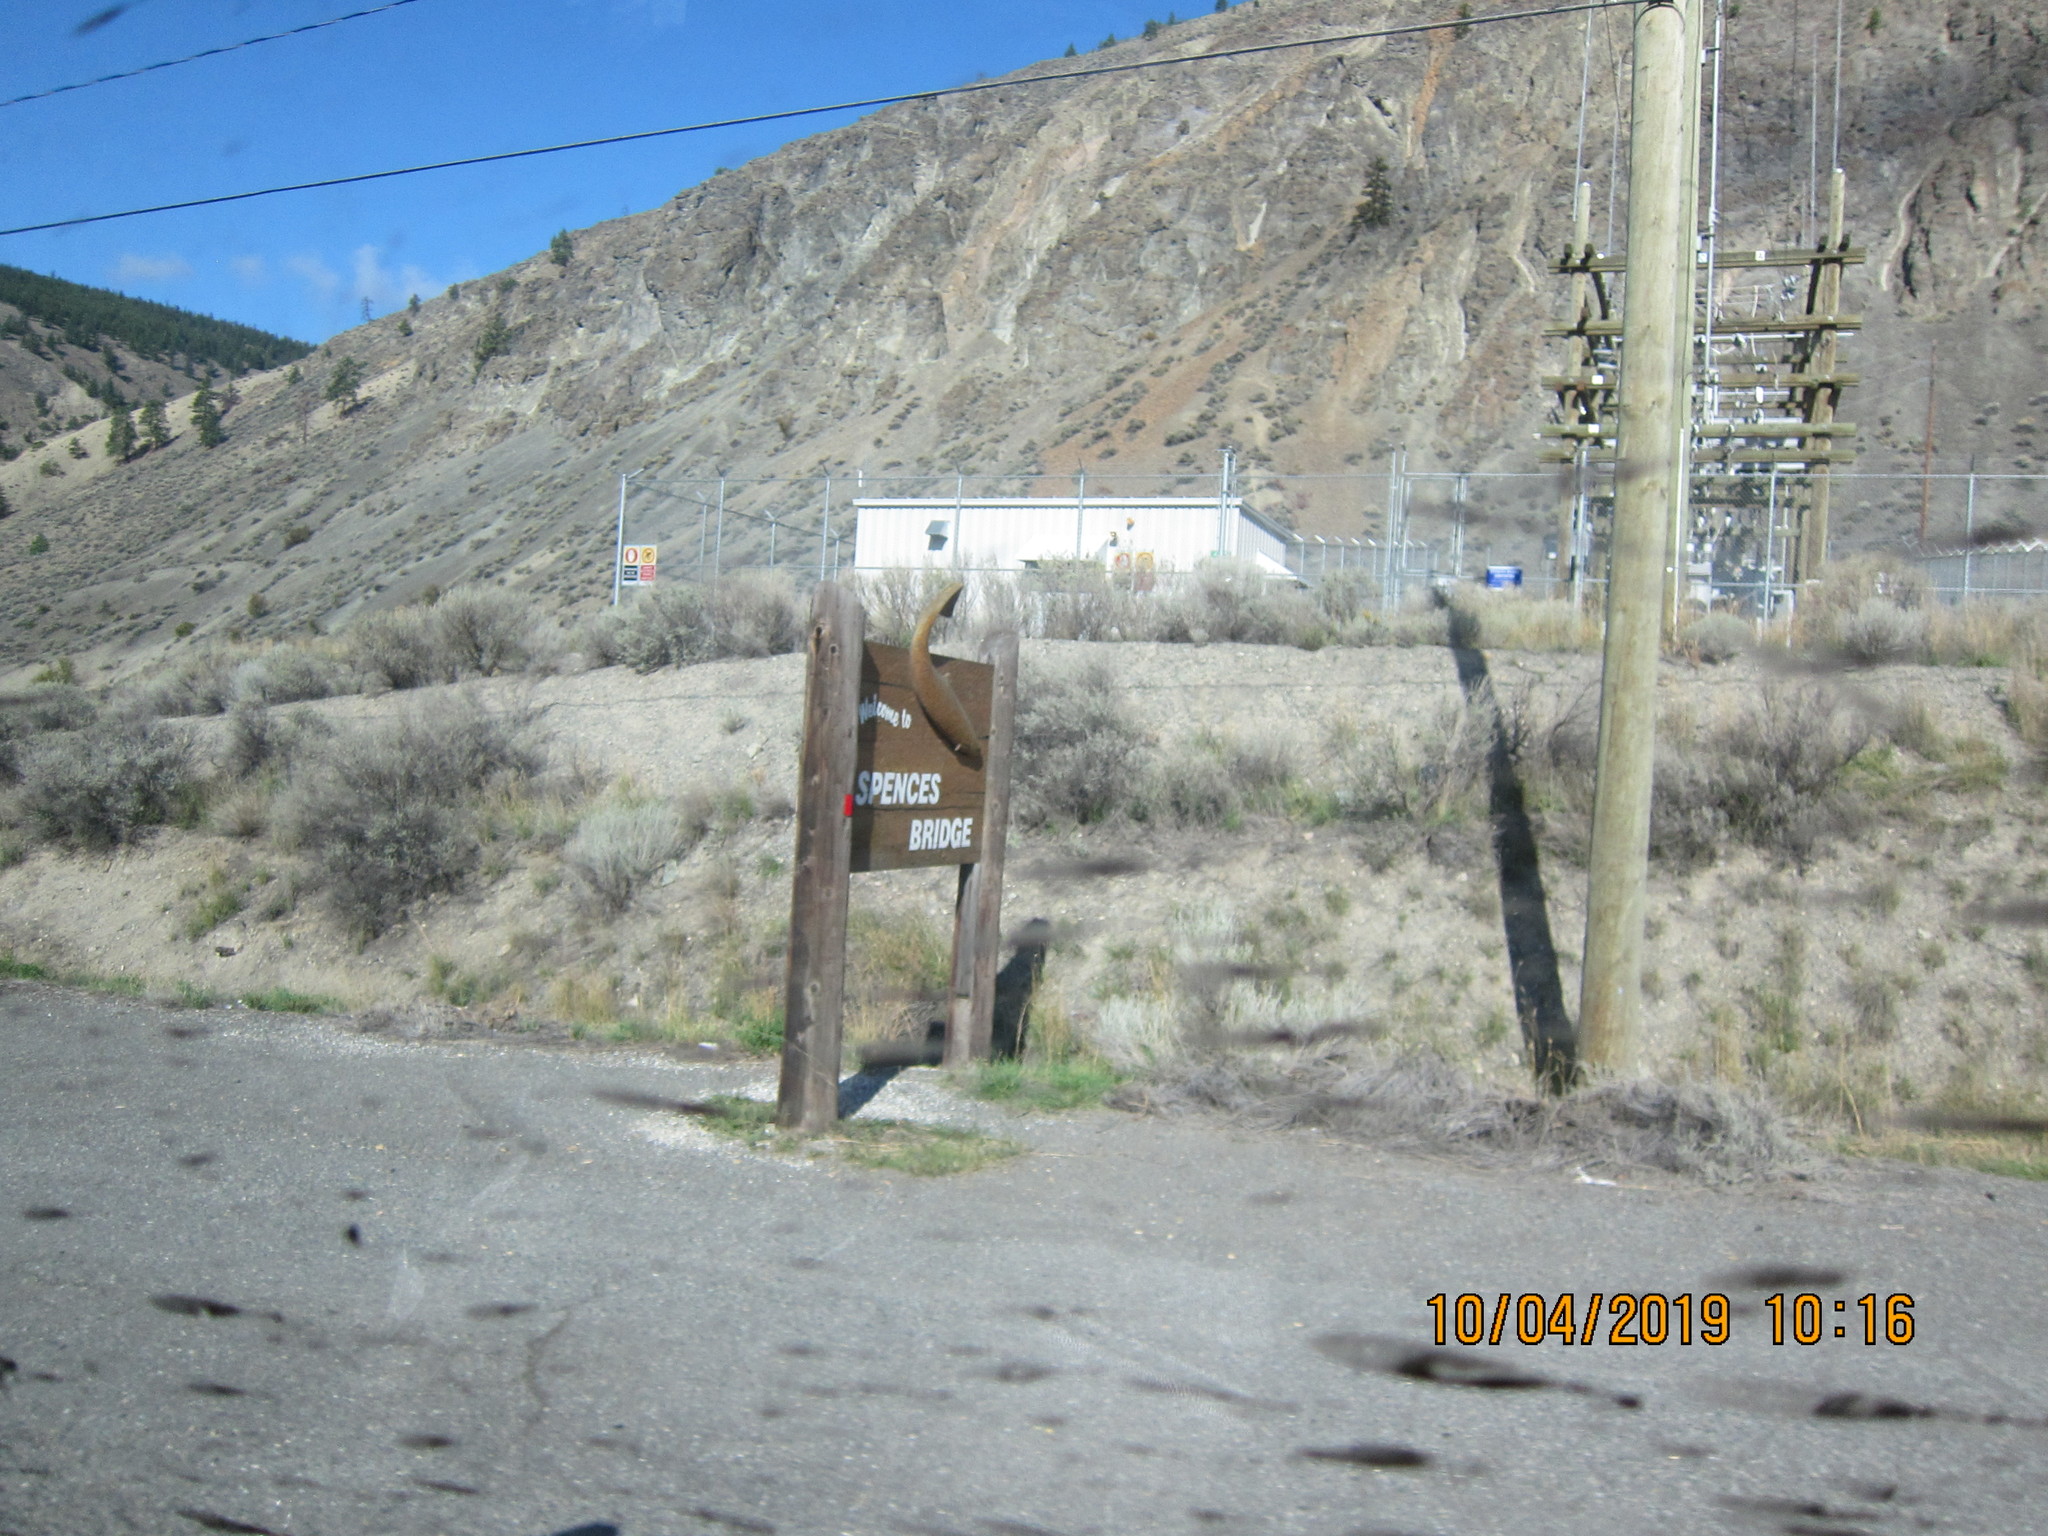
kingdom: Plantae
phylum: Tracheophyta
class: Magnoliopsida
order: Asterales
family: Asteraceae
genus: Artemisia
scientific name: Artemisia tridentata
